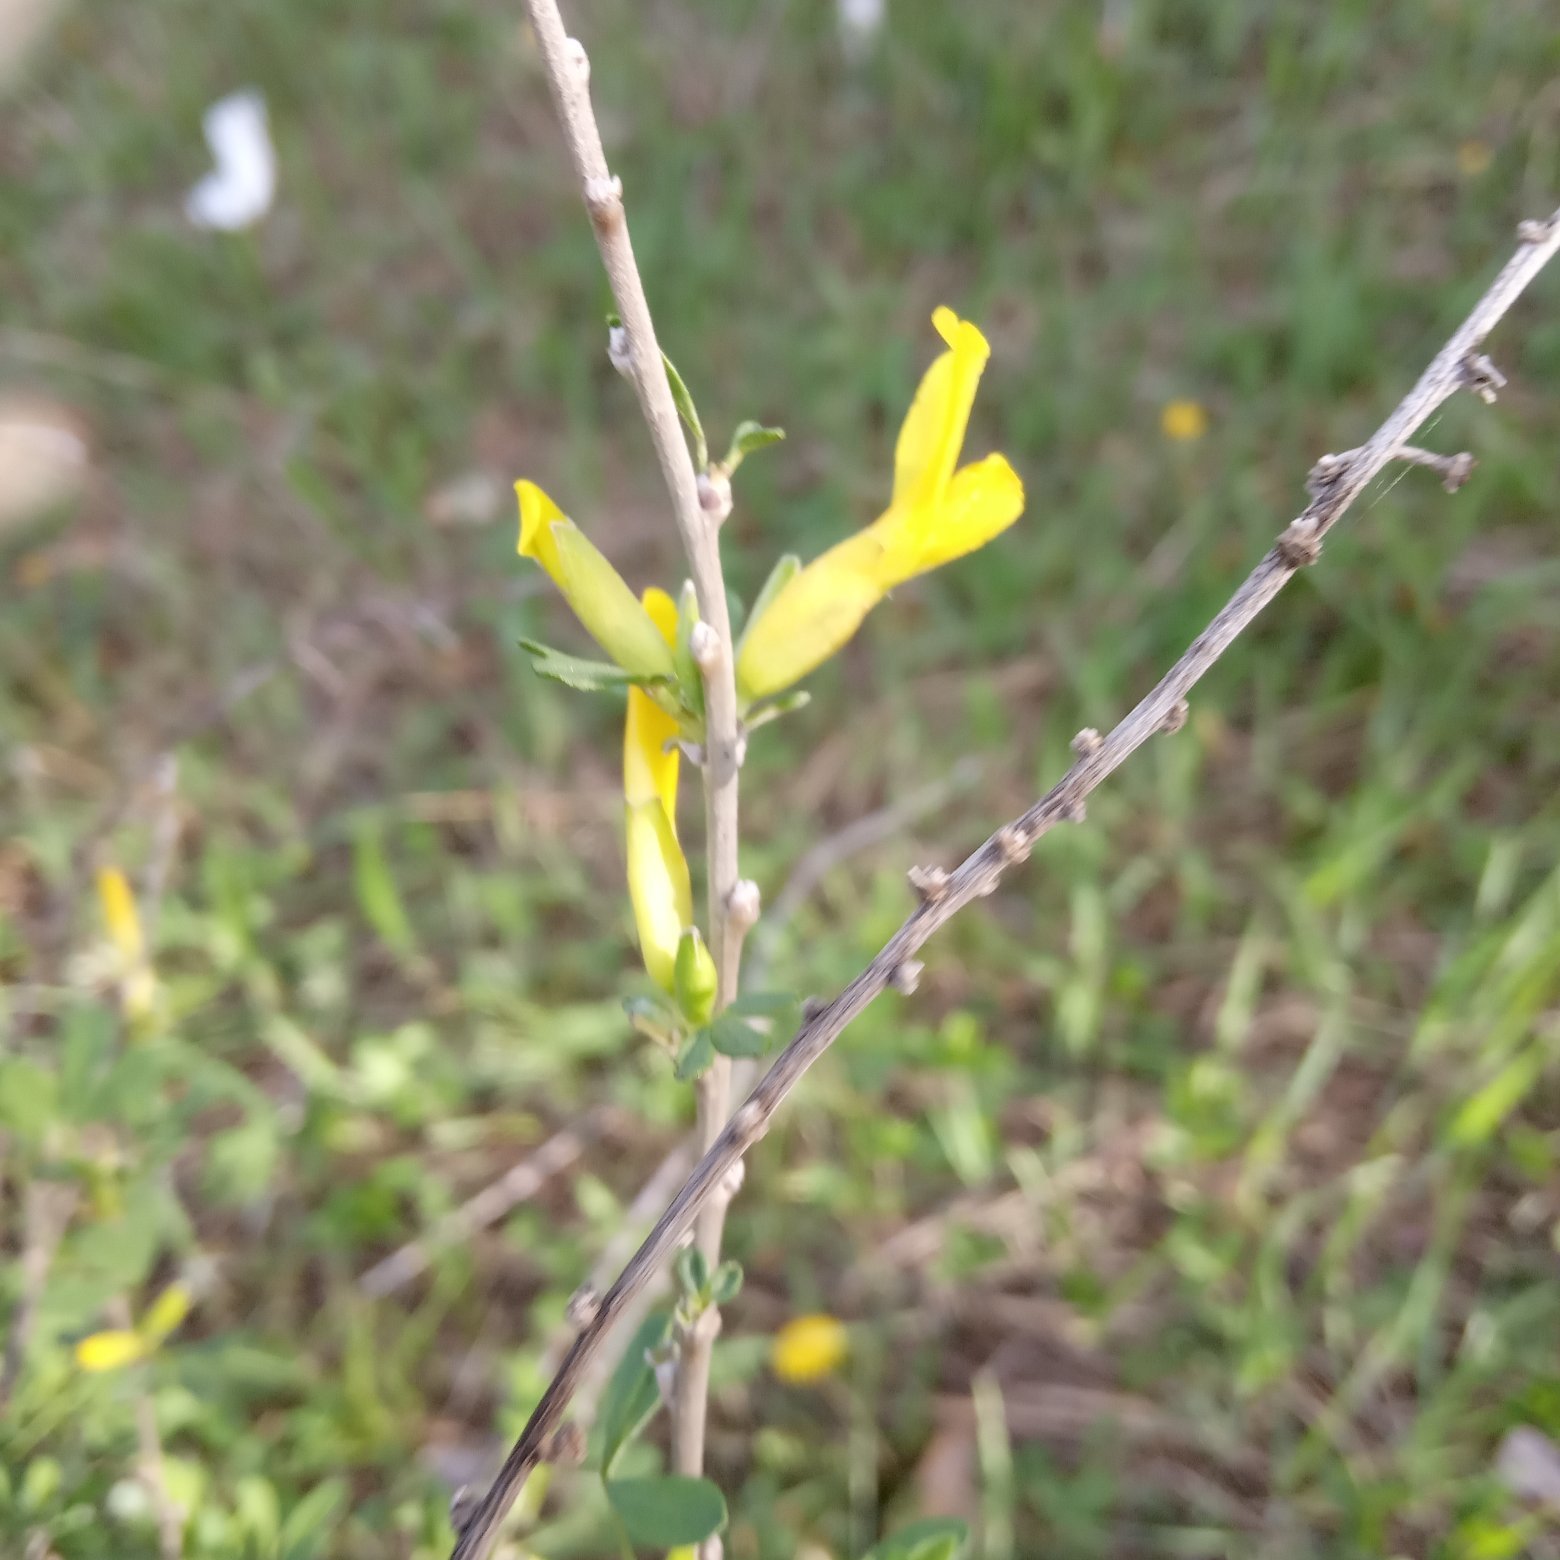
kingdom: Plantae
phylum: Tracheophyta
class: Magnoliopsida
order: Fabales
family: Fabaceae
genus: Chamaecytisus
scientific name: Chamaecytisus ruthenicus
